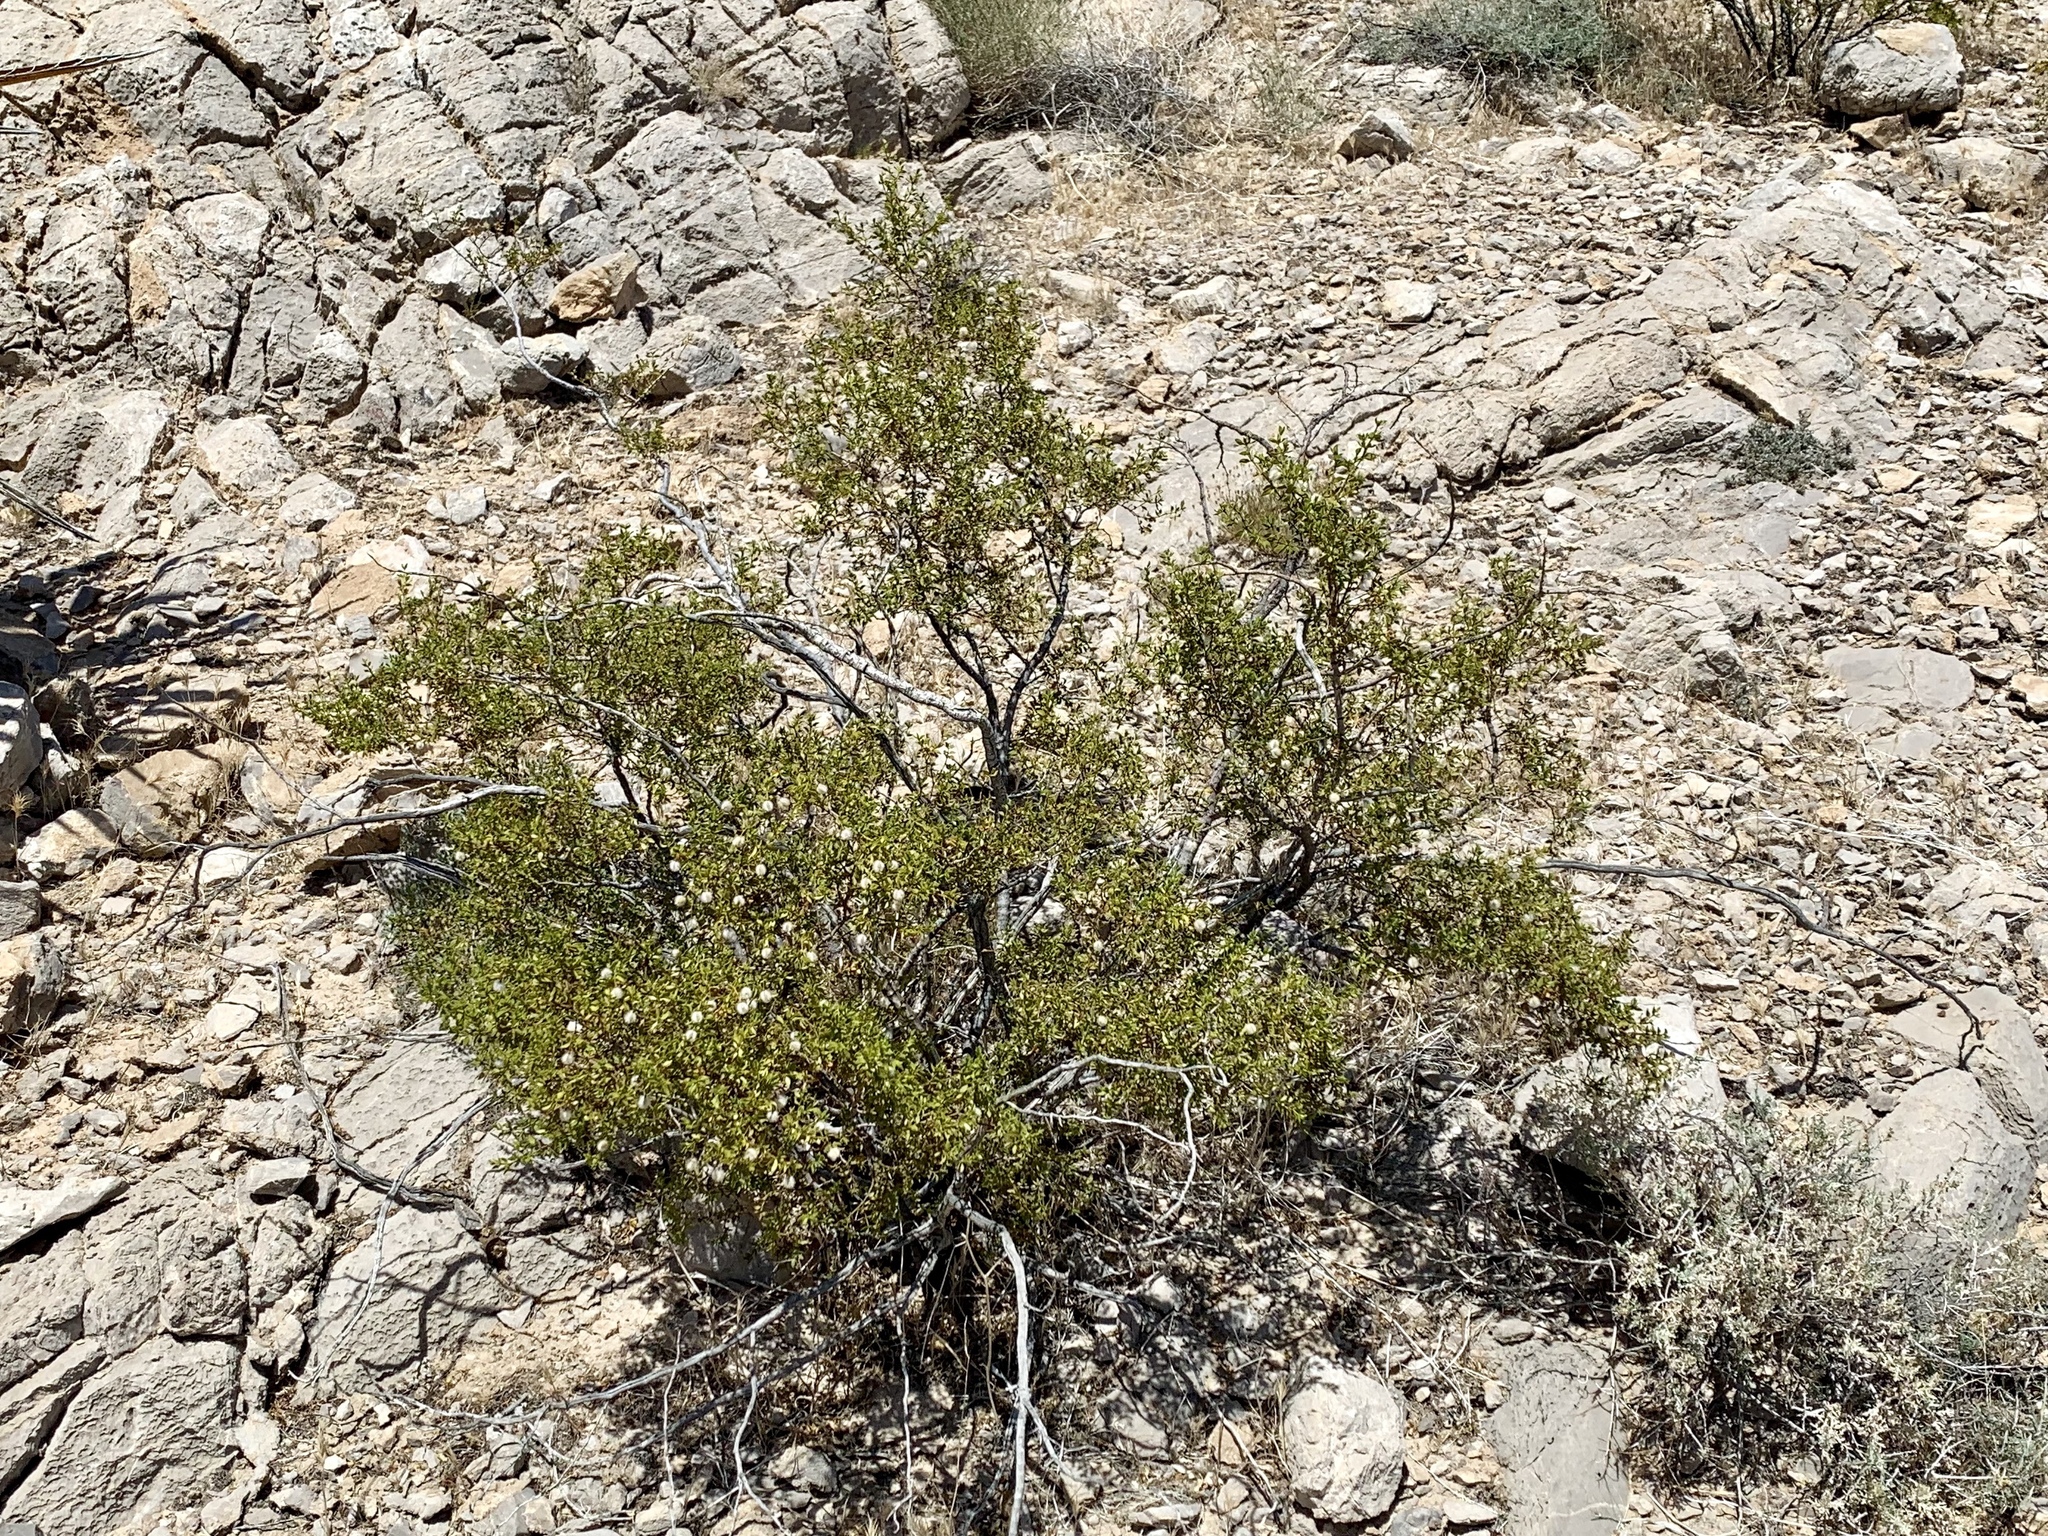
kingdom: Plantae
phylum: Tracheophyta
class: Magnoliopsida
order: Zygophyllales
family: Zygophyllaceae
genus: Larrea
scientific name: Larrea tridentata
